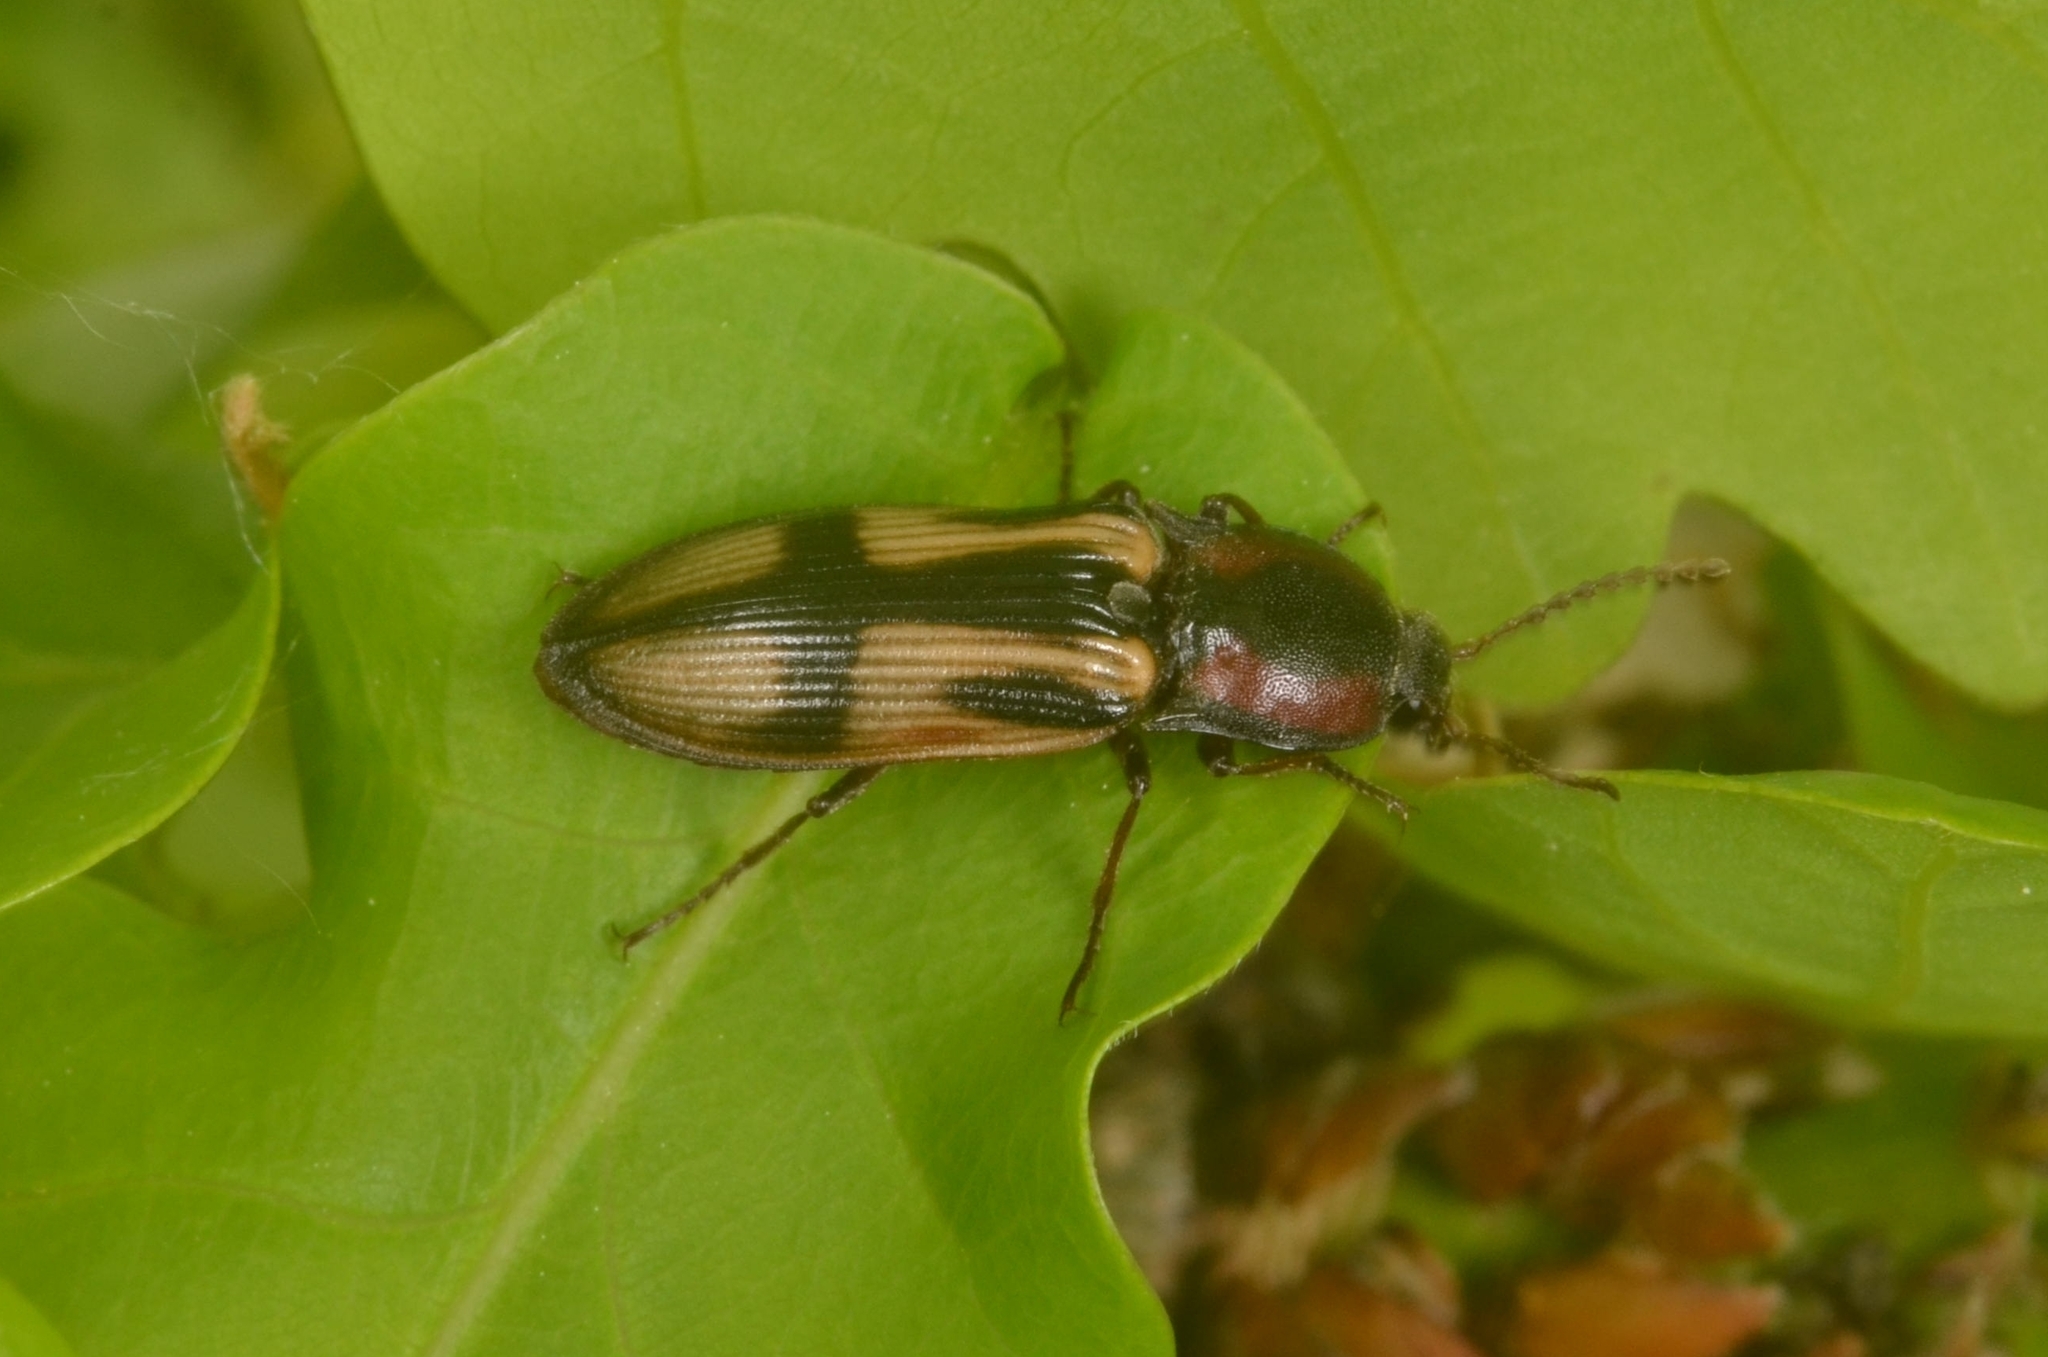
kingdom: Animalia
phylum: Arthropoda
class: Insecta
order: Coleoptera
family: Elateridae
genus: Selatosomus
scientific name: Selatosomus cruciatus
